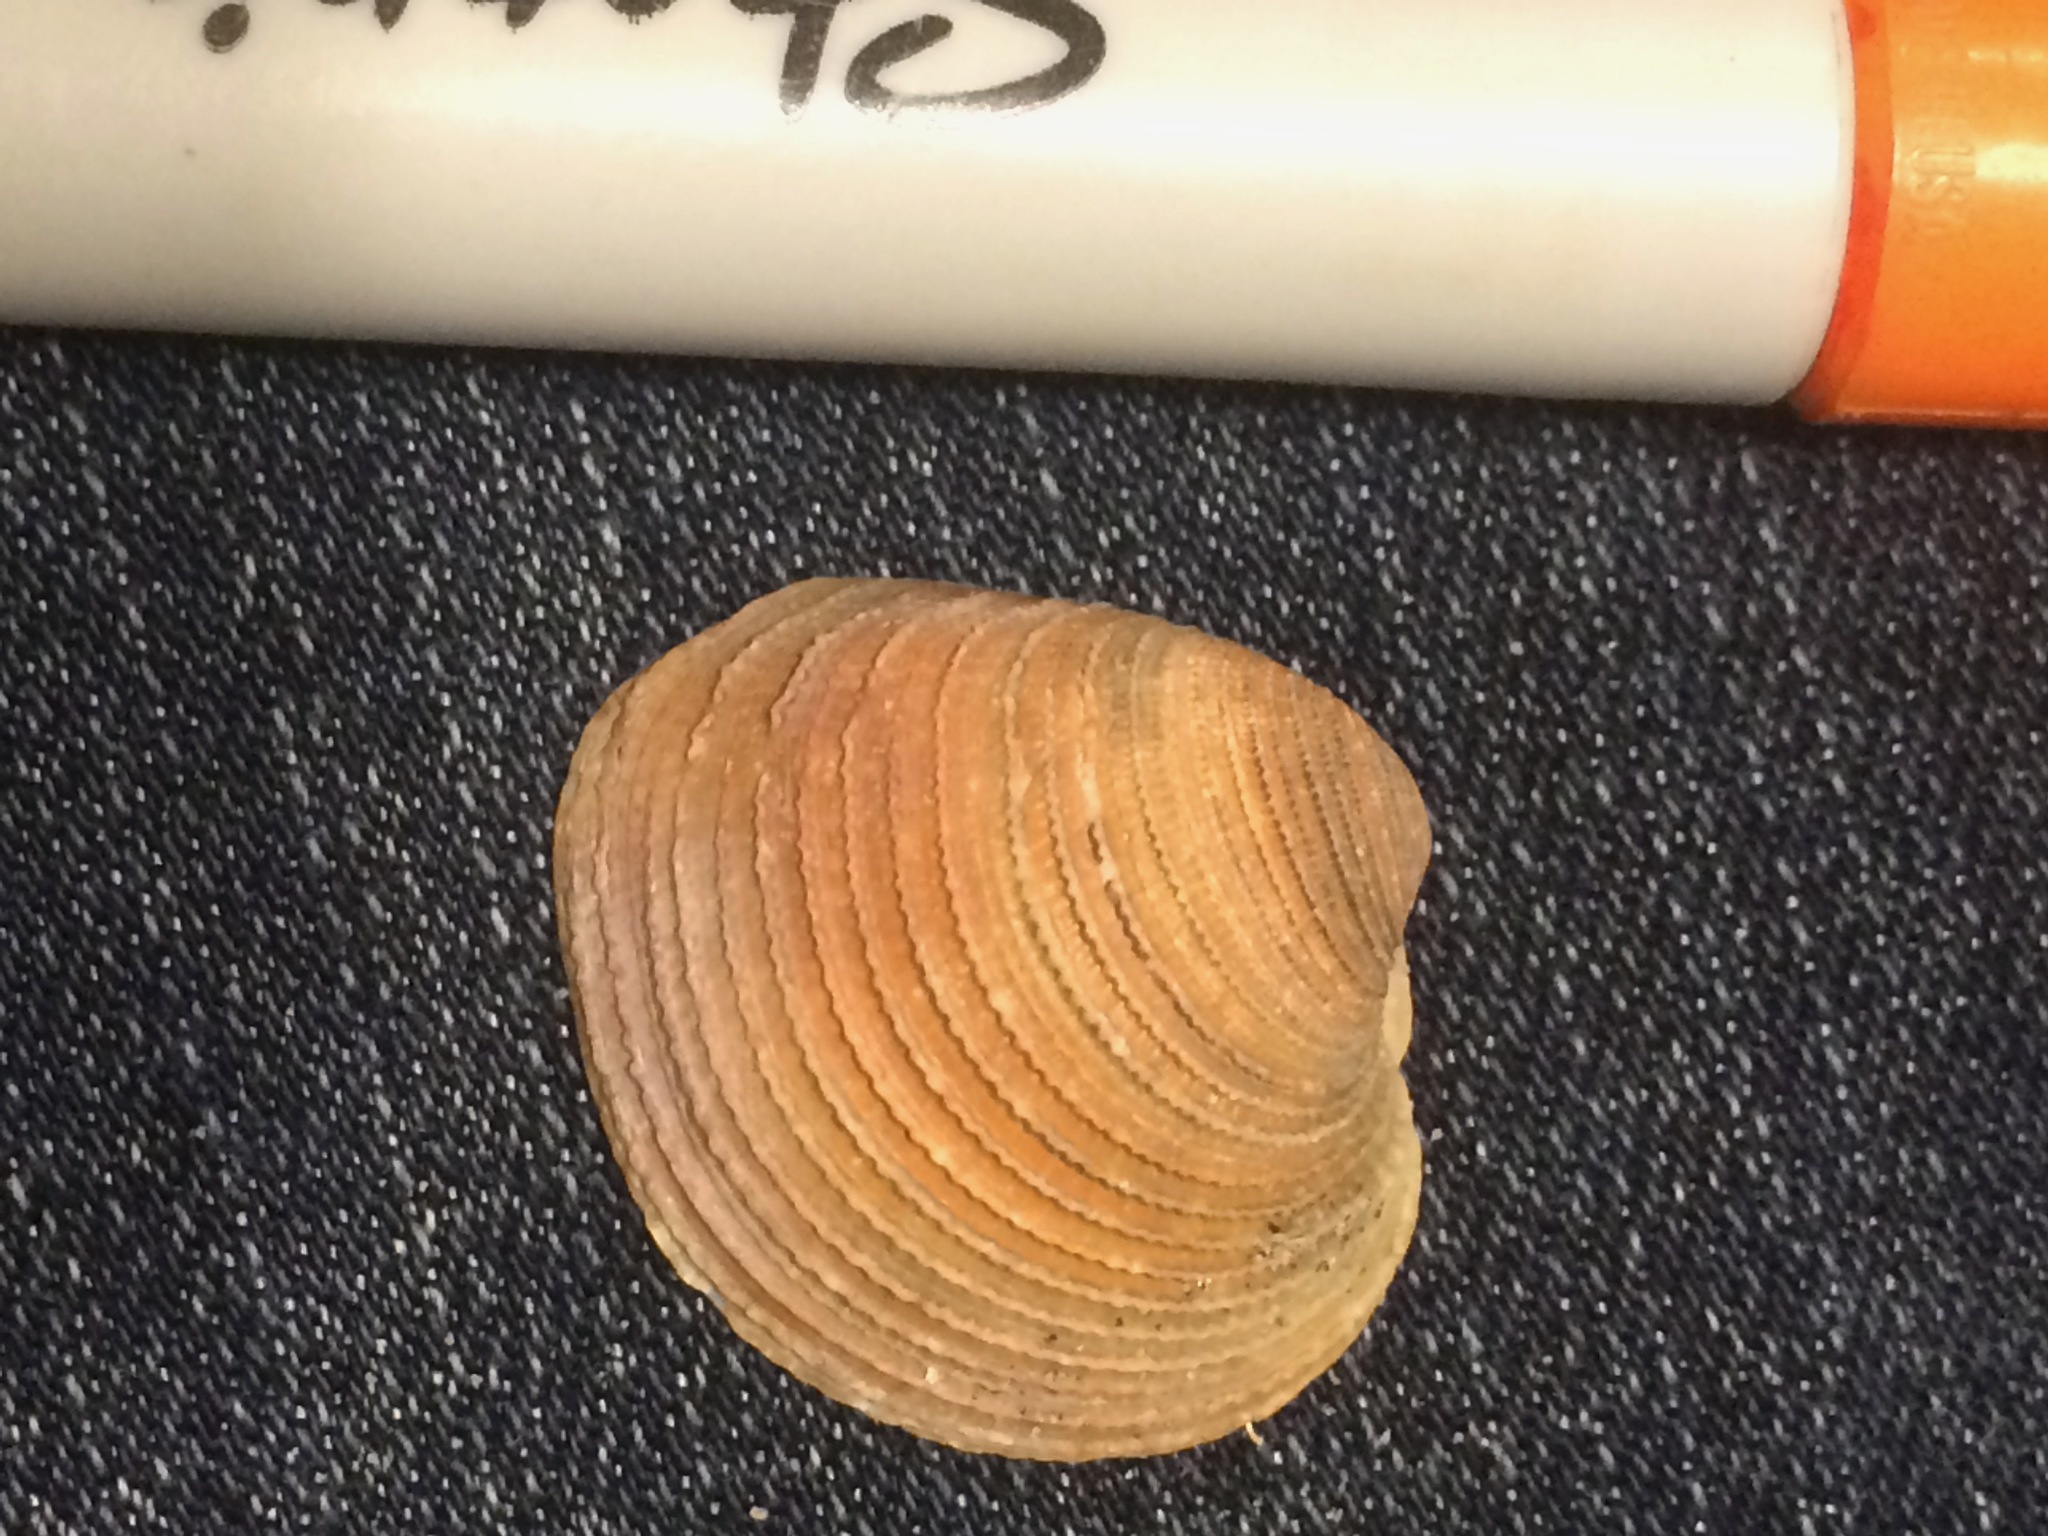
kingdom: Animalia
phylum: Mollusca
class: Bivalvia
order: Venerida
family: Veneridae
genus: Chionopsis
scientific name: Chionopsis intapurpurea
